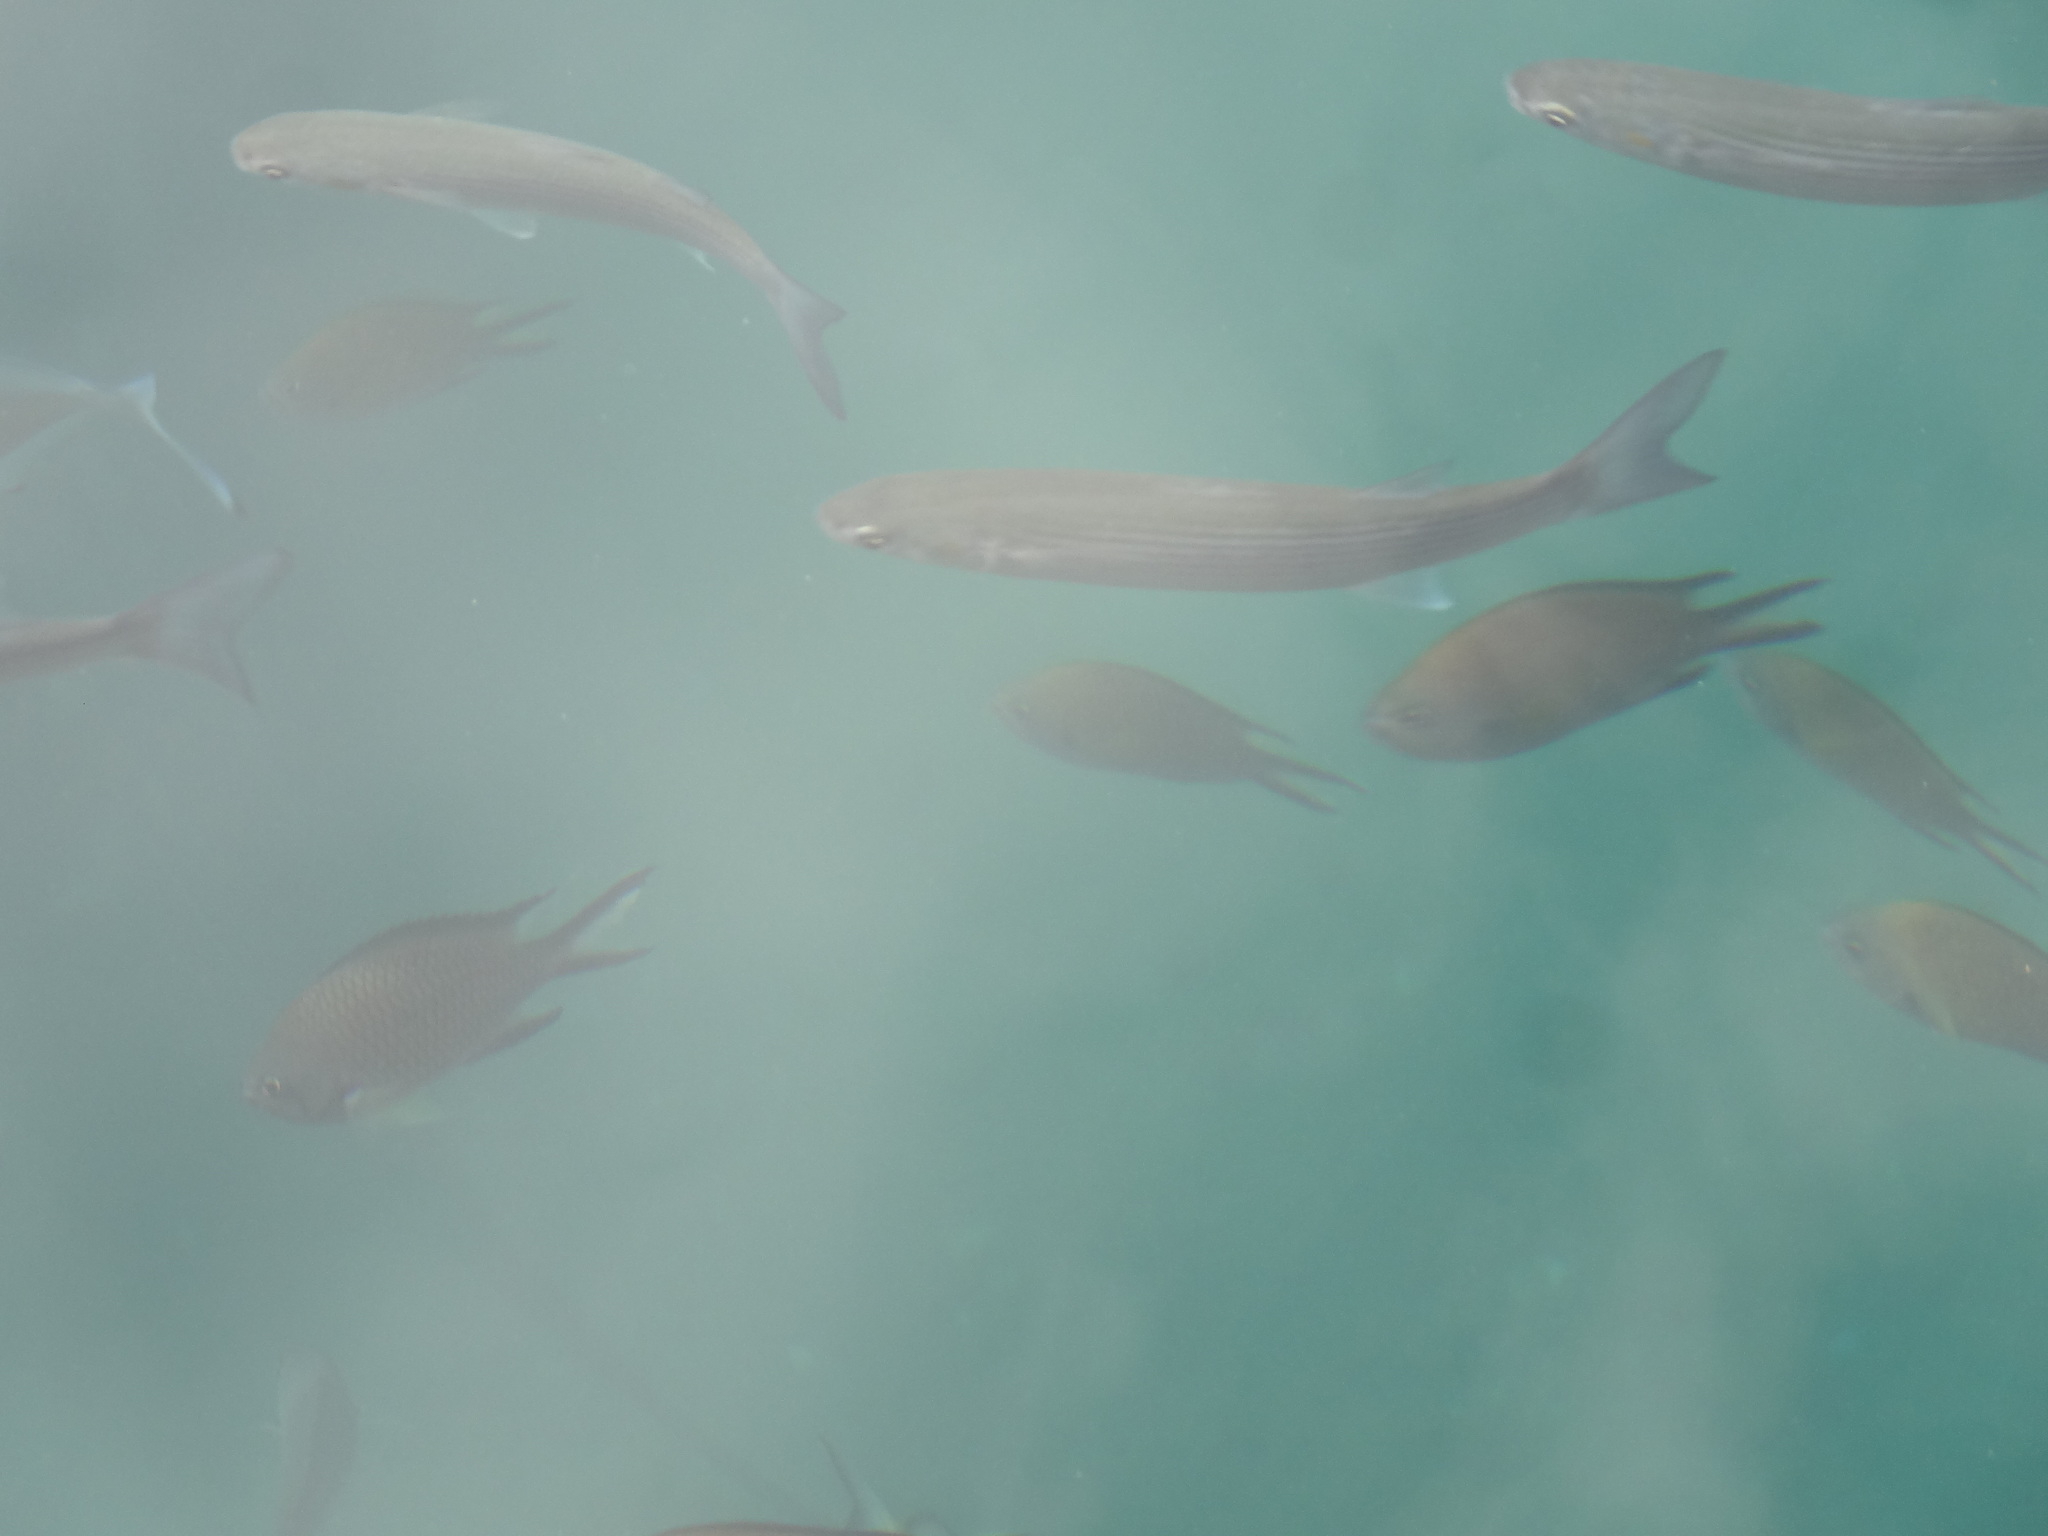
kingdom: Animalia
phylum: Chordata
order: Perciformes
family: Pomacentridae
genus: Chromis
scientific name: Chromis limbata
